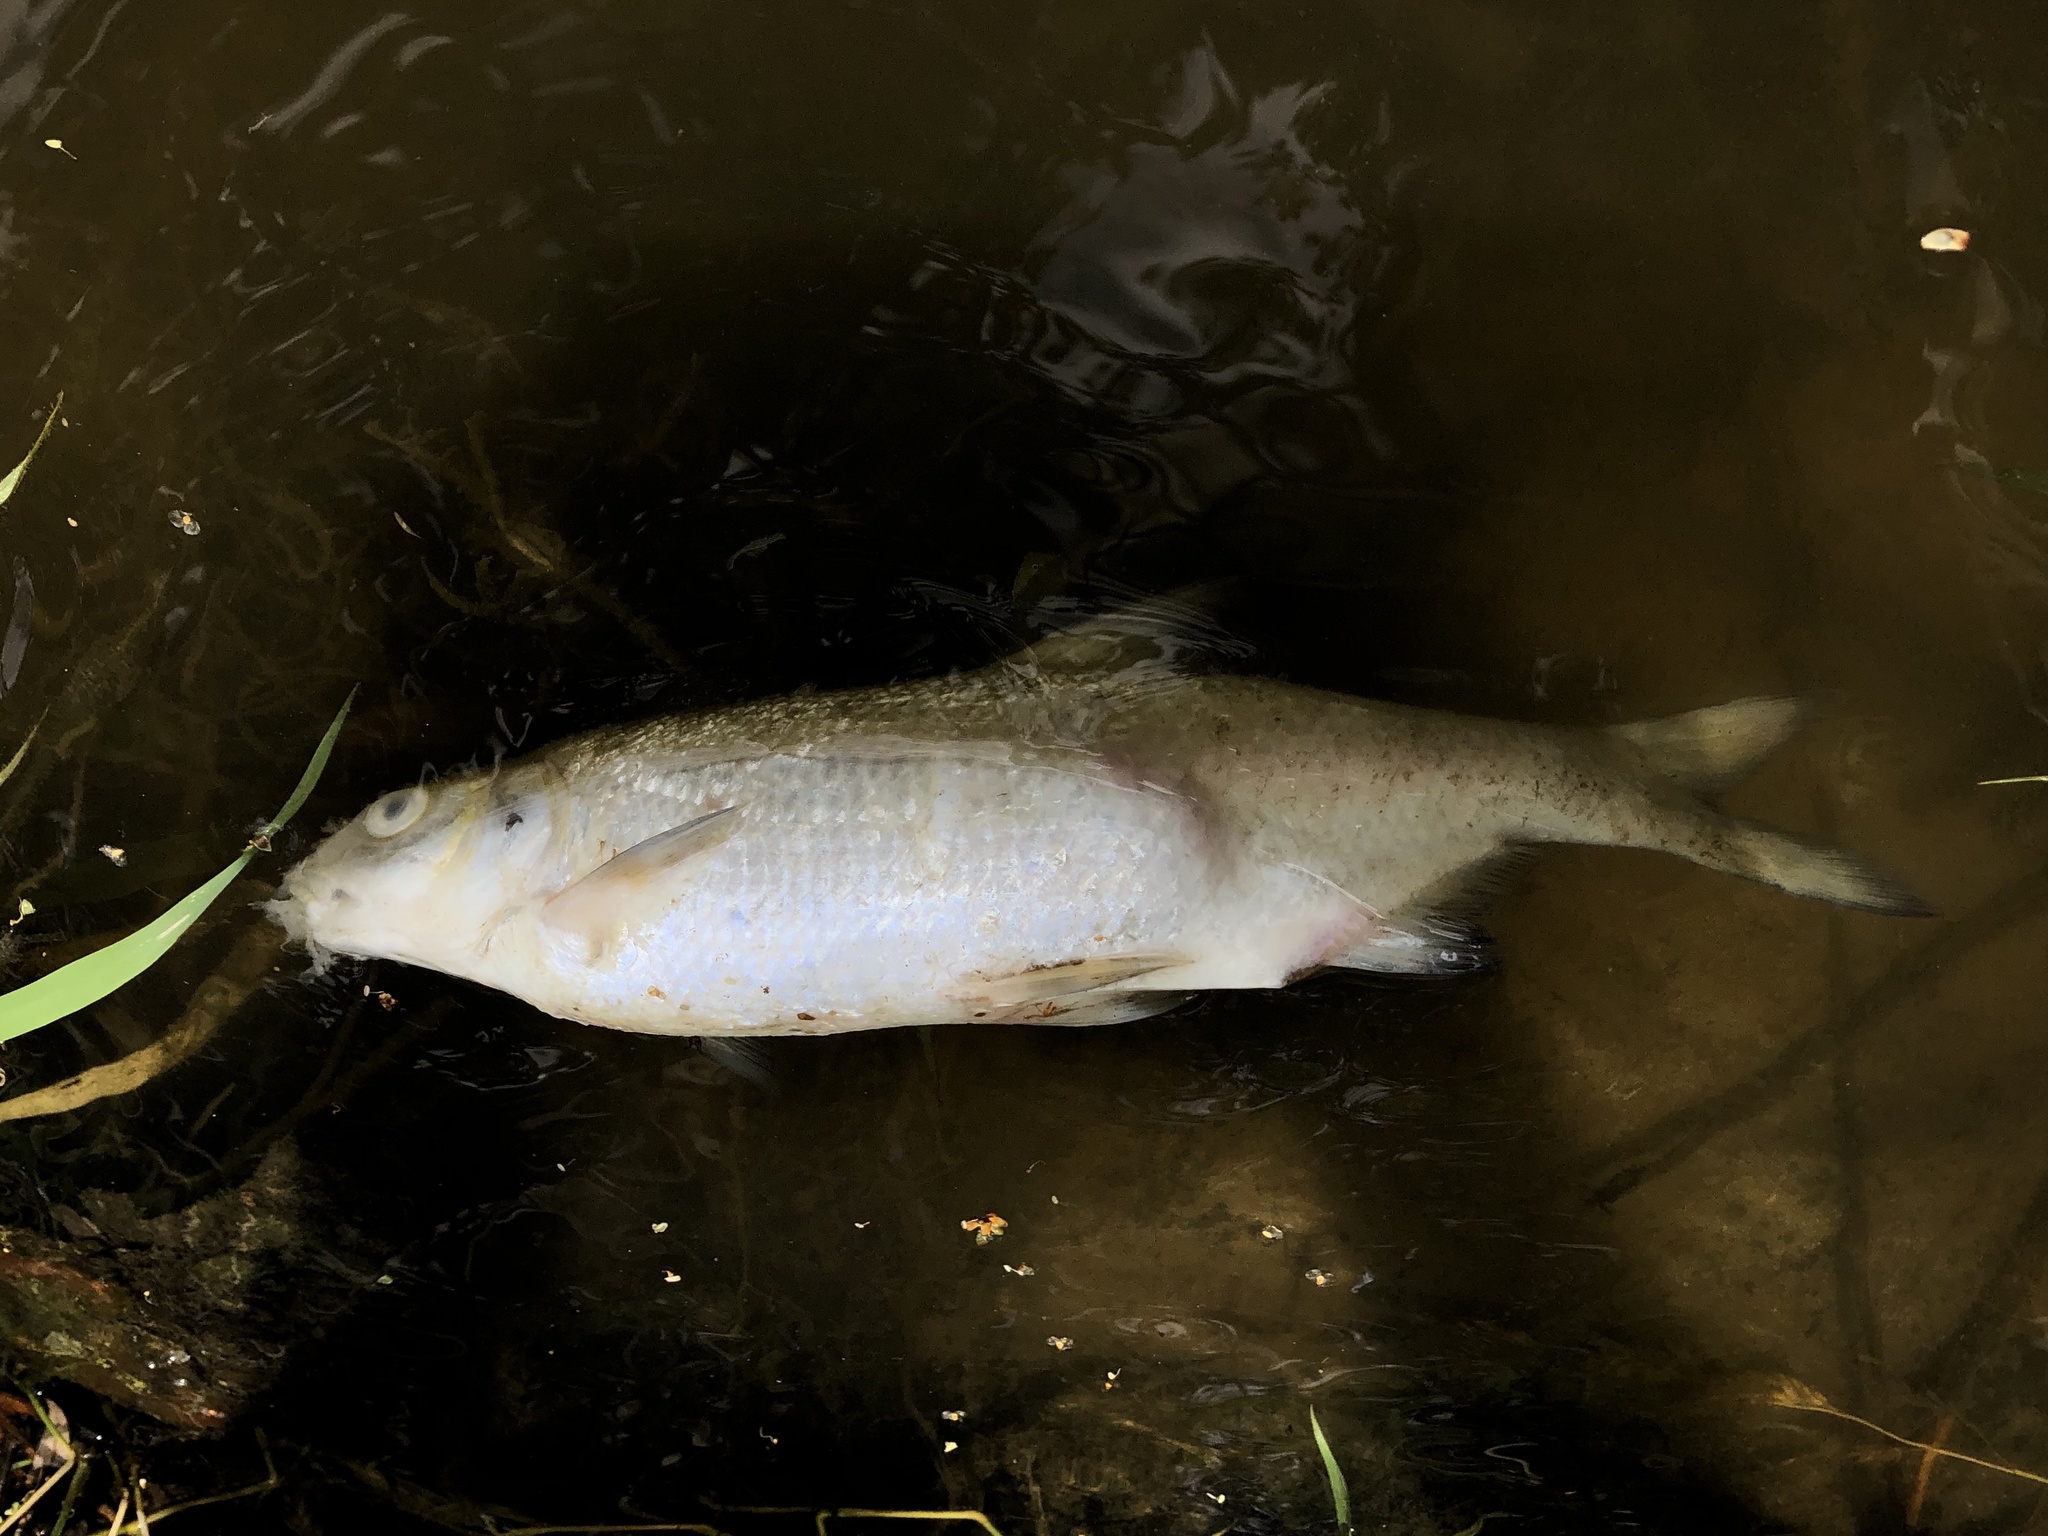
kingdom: Animalia
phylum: Chordata
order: Cypriniformes
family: Cyprinidae
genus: Vimba
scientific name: Vimba vimba
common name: Vimba
